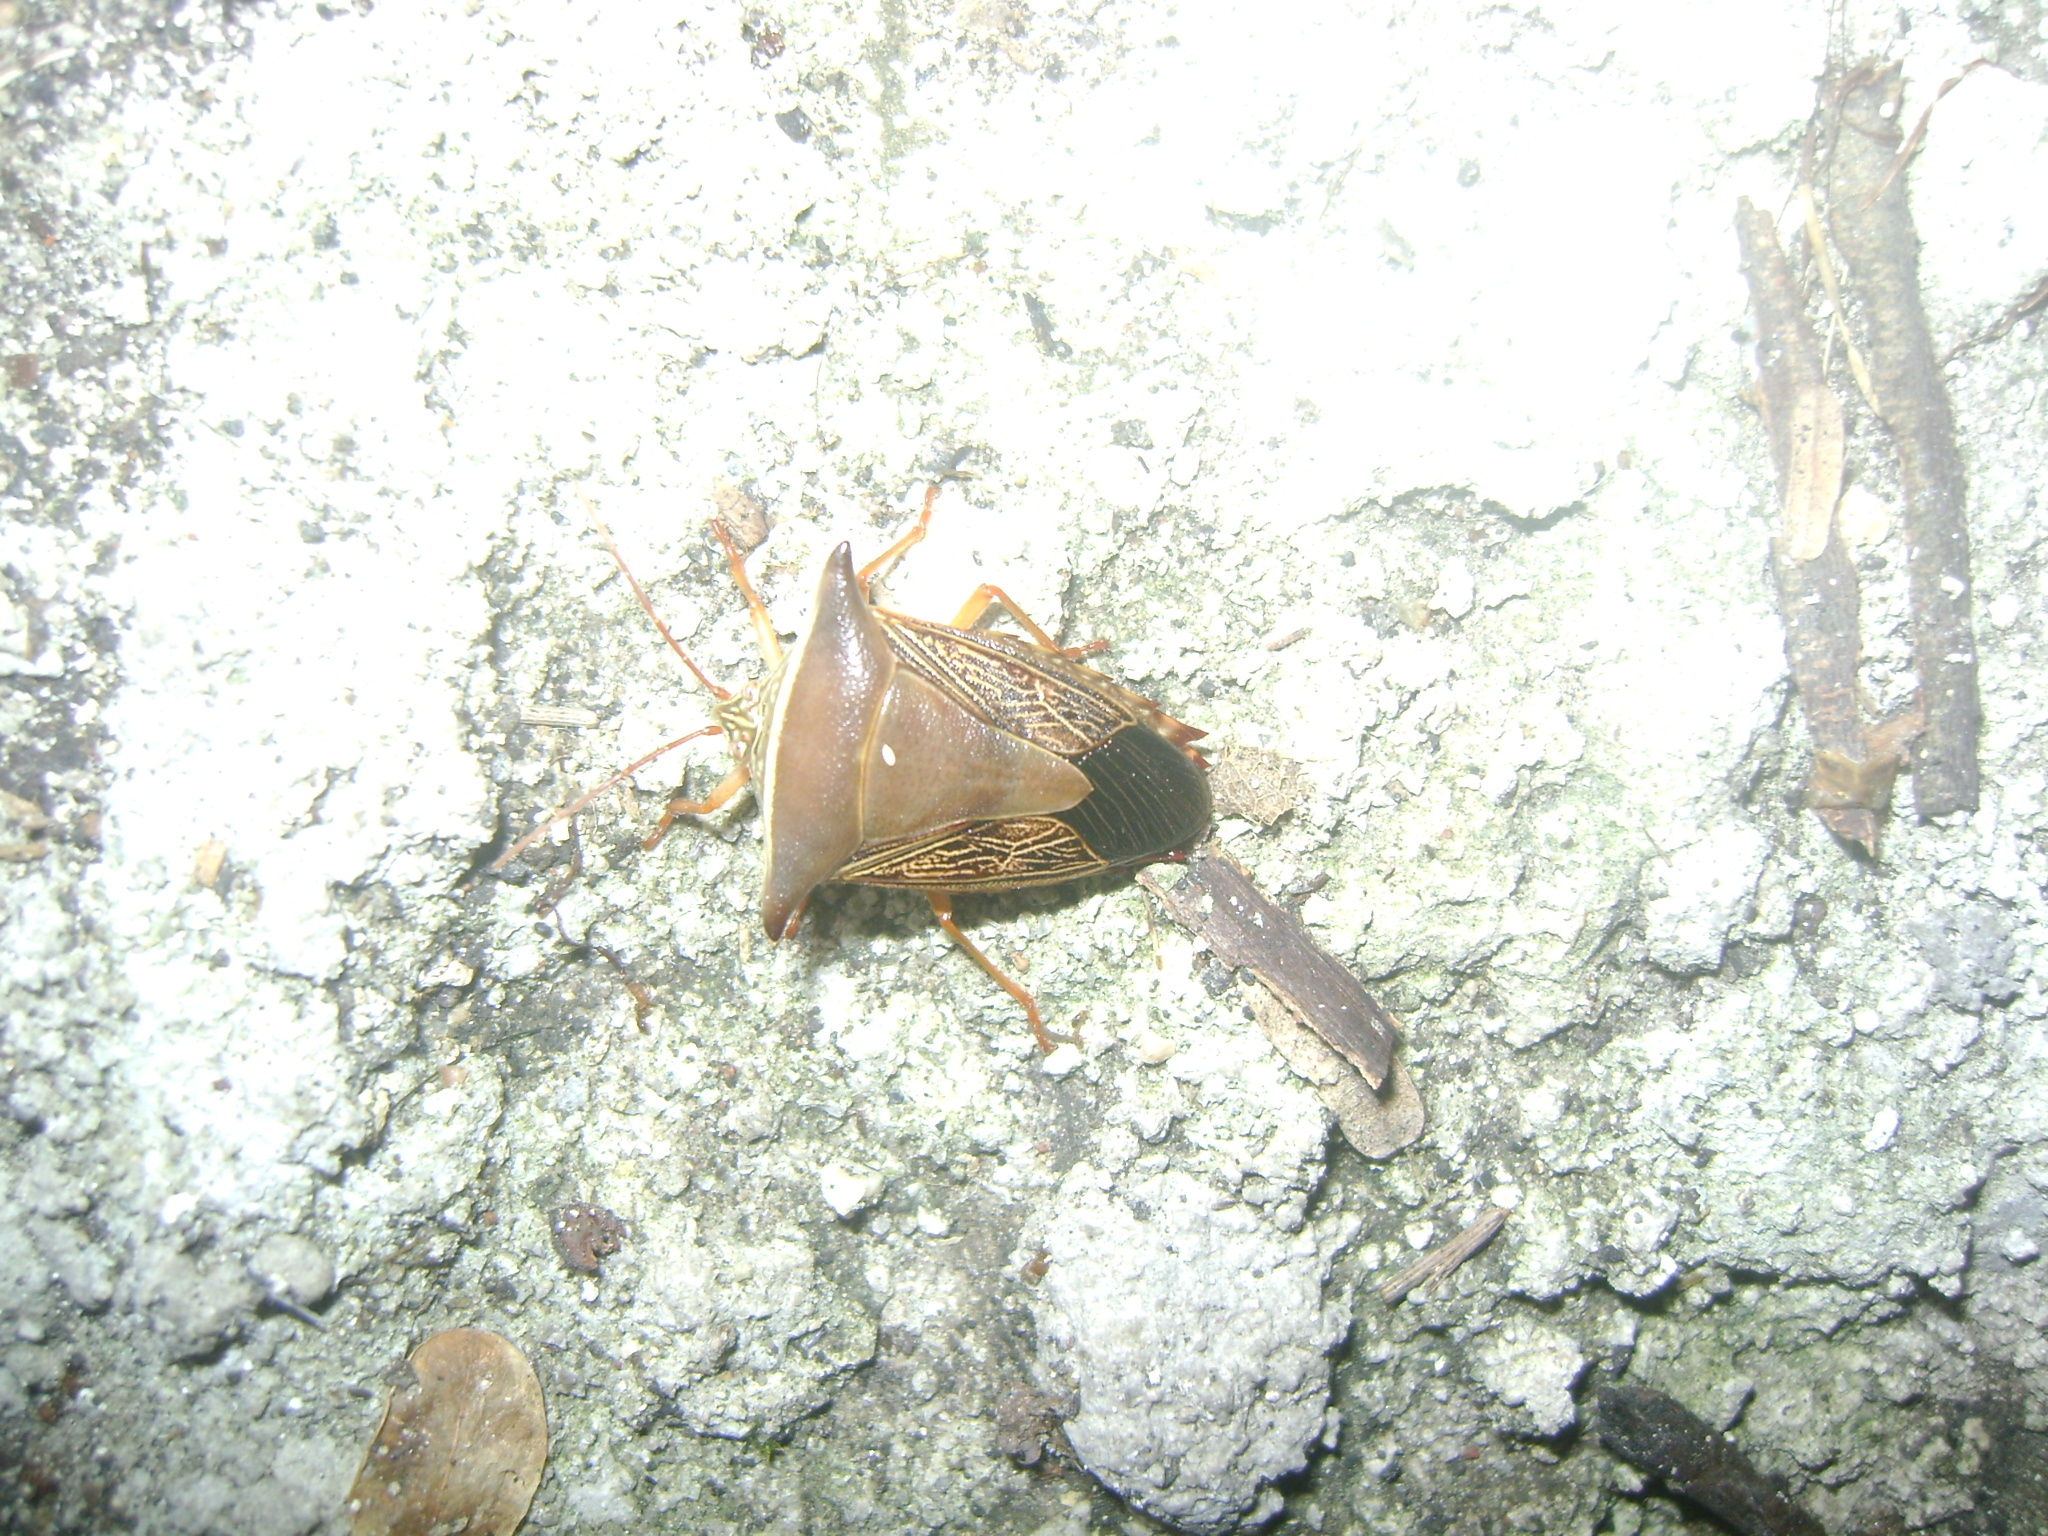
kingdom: Animalia
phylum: Arthropoda
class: Insecta
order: Hemiptera
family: Pentatomidae
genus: Edessa
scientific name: Edessa reticulata
